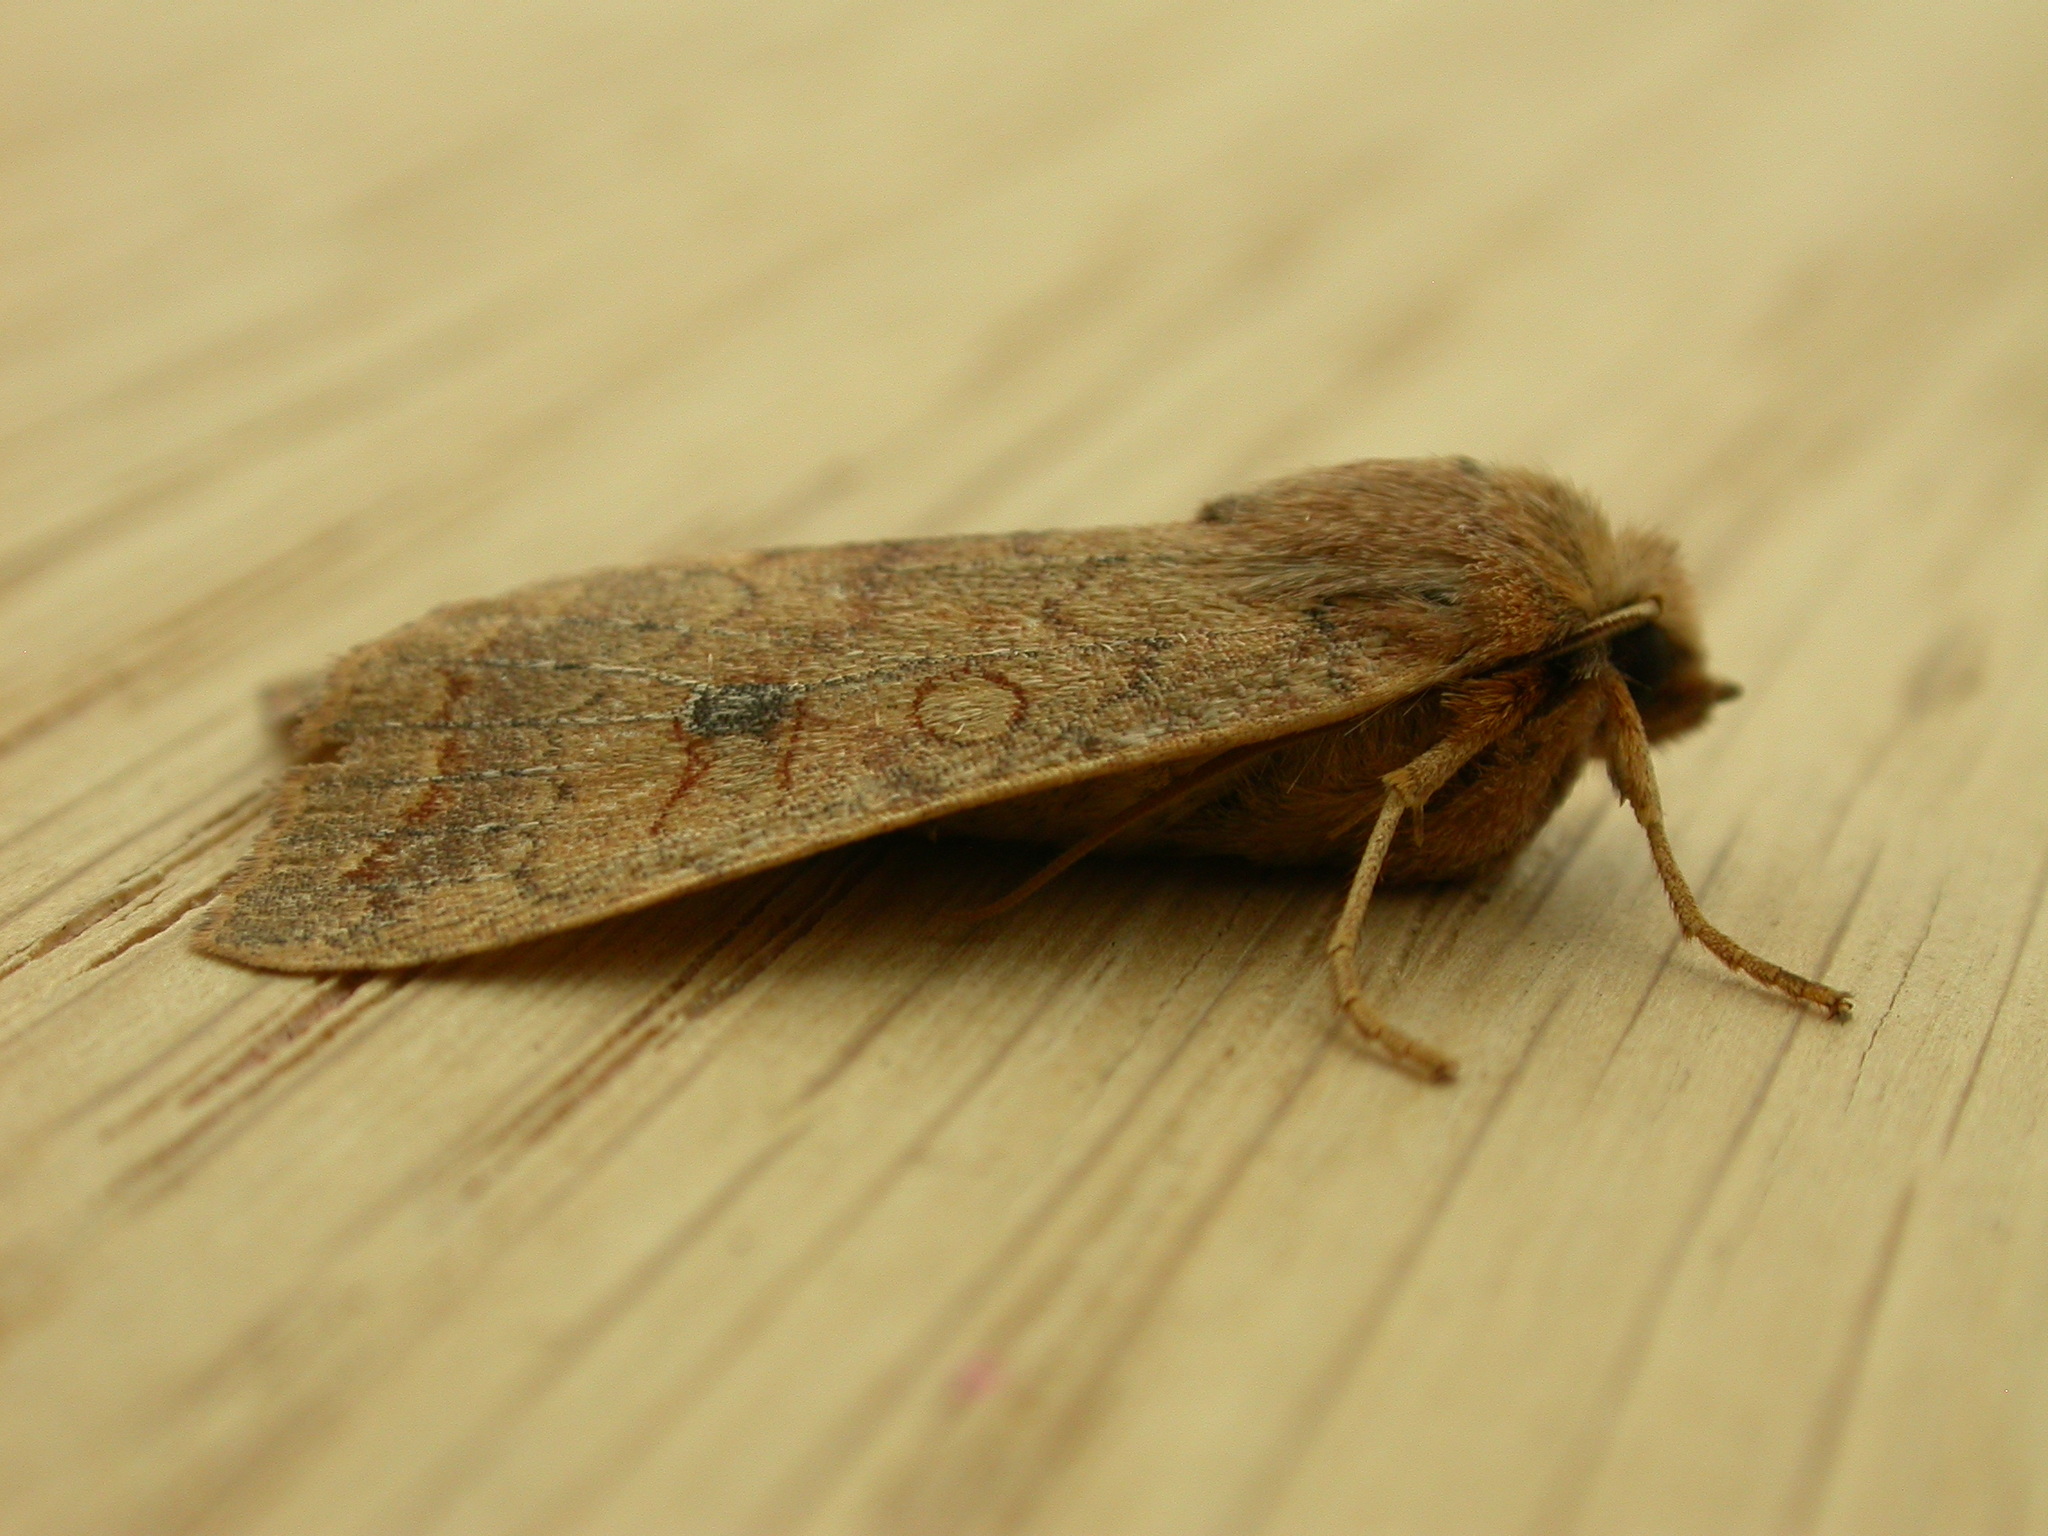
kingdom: Animalia
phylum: Arthropoda
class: Insecta
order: Lepidoptera
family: Noctuidae
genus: Sunira
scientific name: Sunira circellaris
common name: Brick
